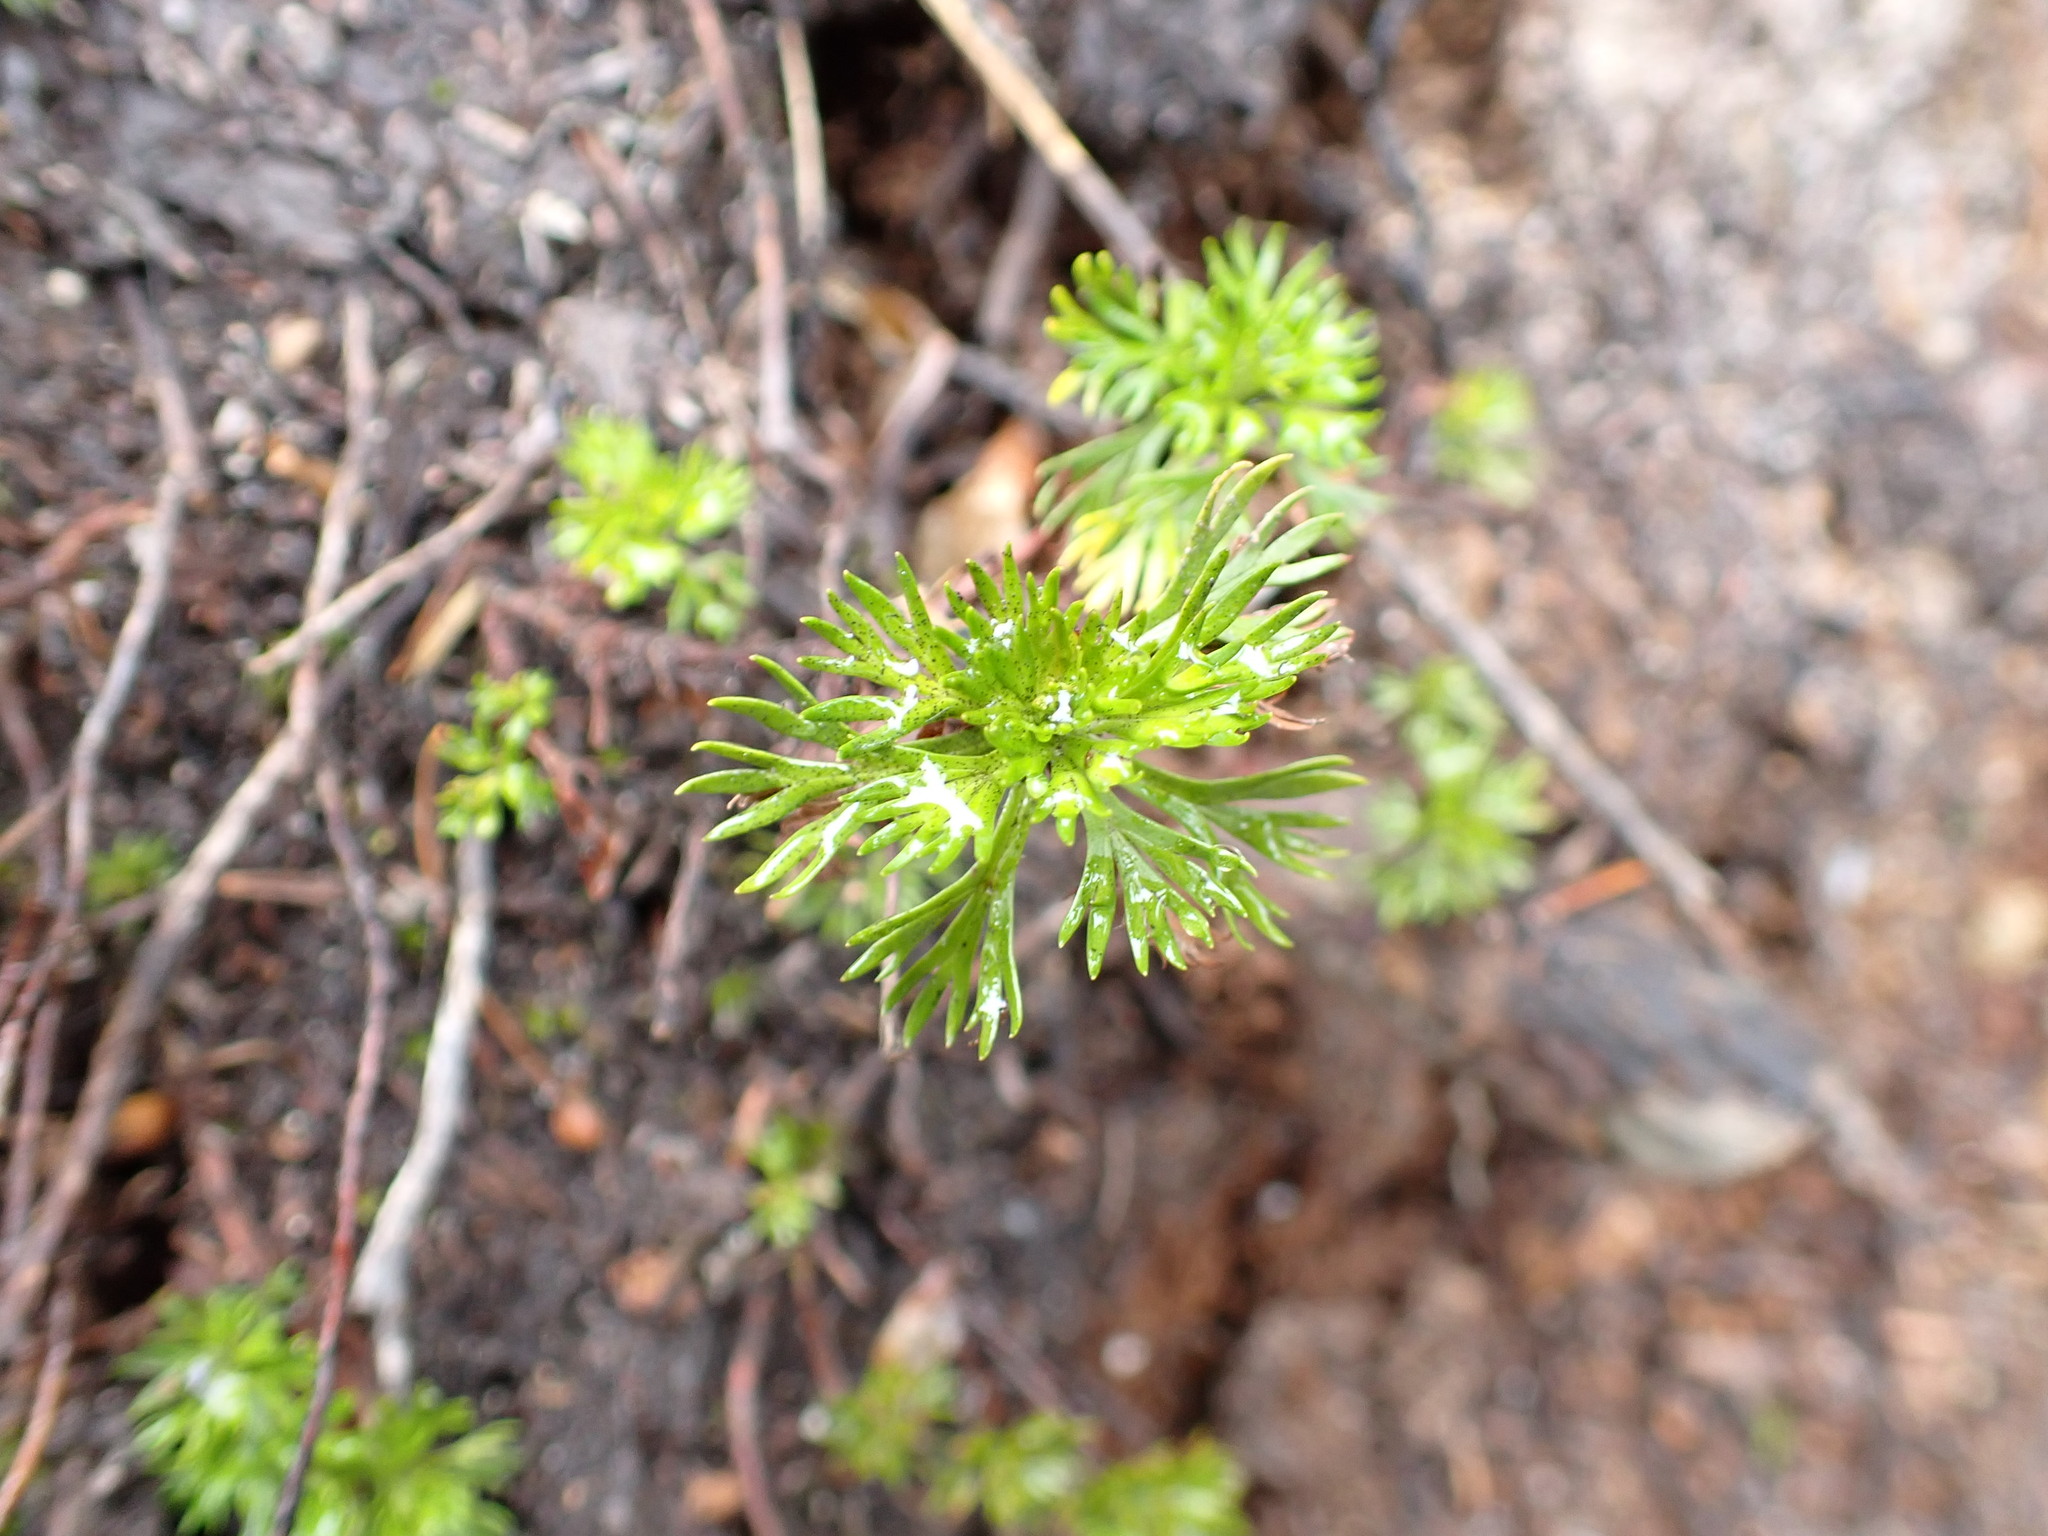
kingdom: Plantae
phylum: Tracheophyta
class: Magnoliopsida
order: Rosales
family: Rosaceae
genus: Luetkea
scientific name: Luetkea pectinata
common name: Partridgefoot
